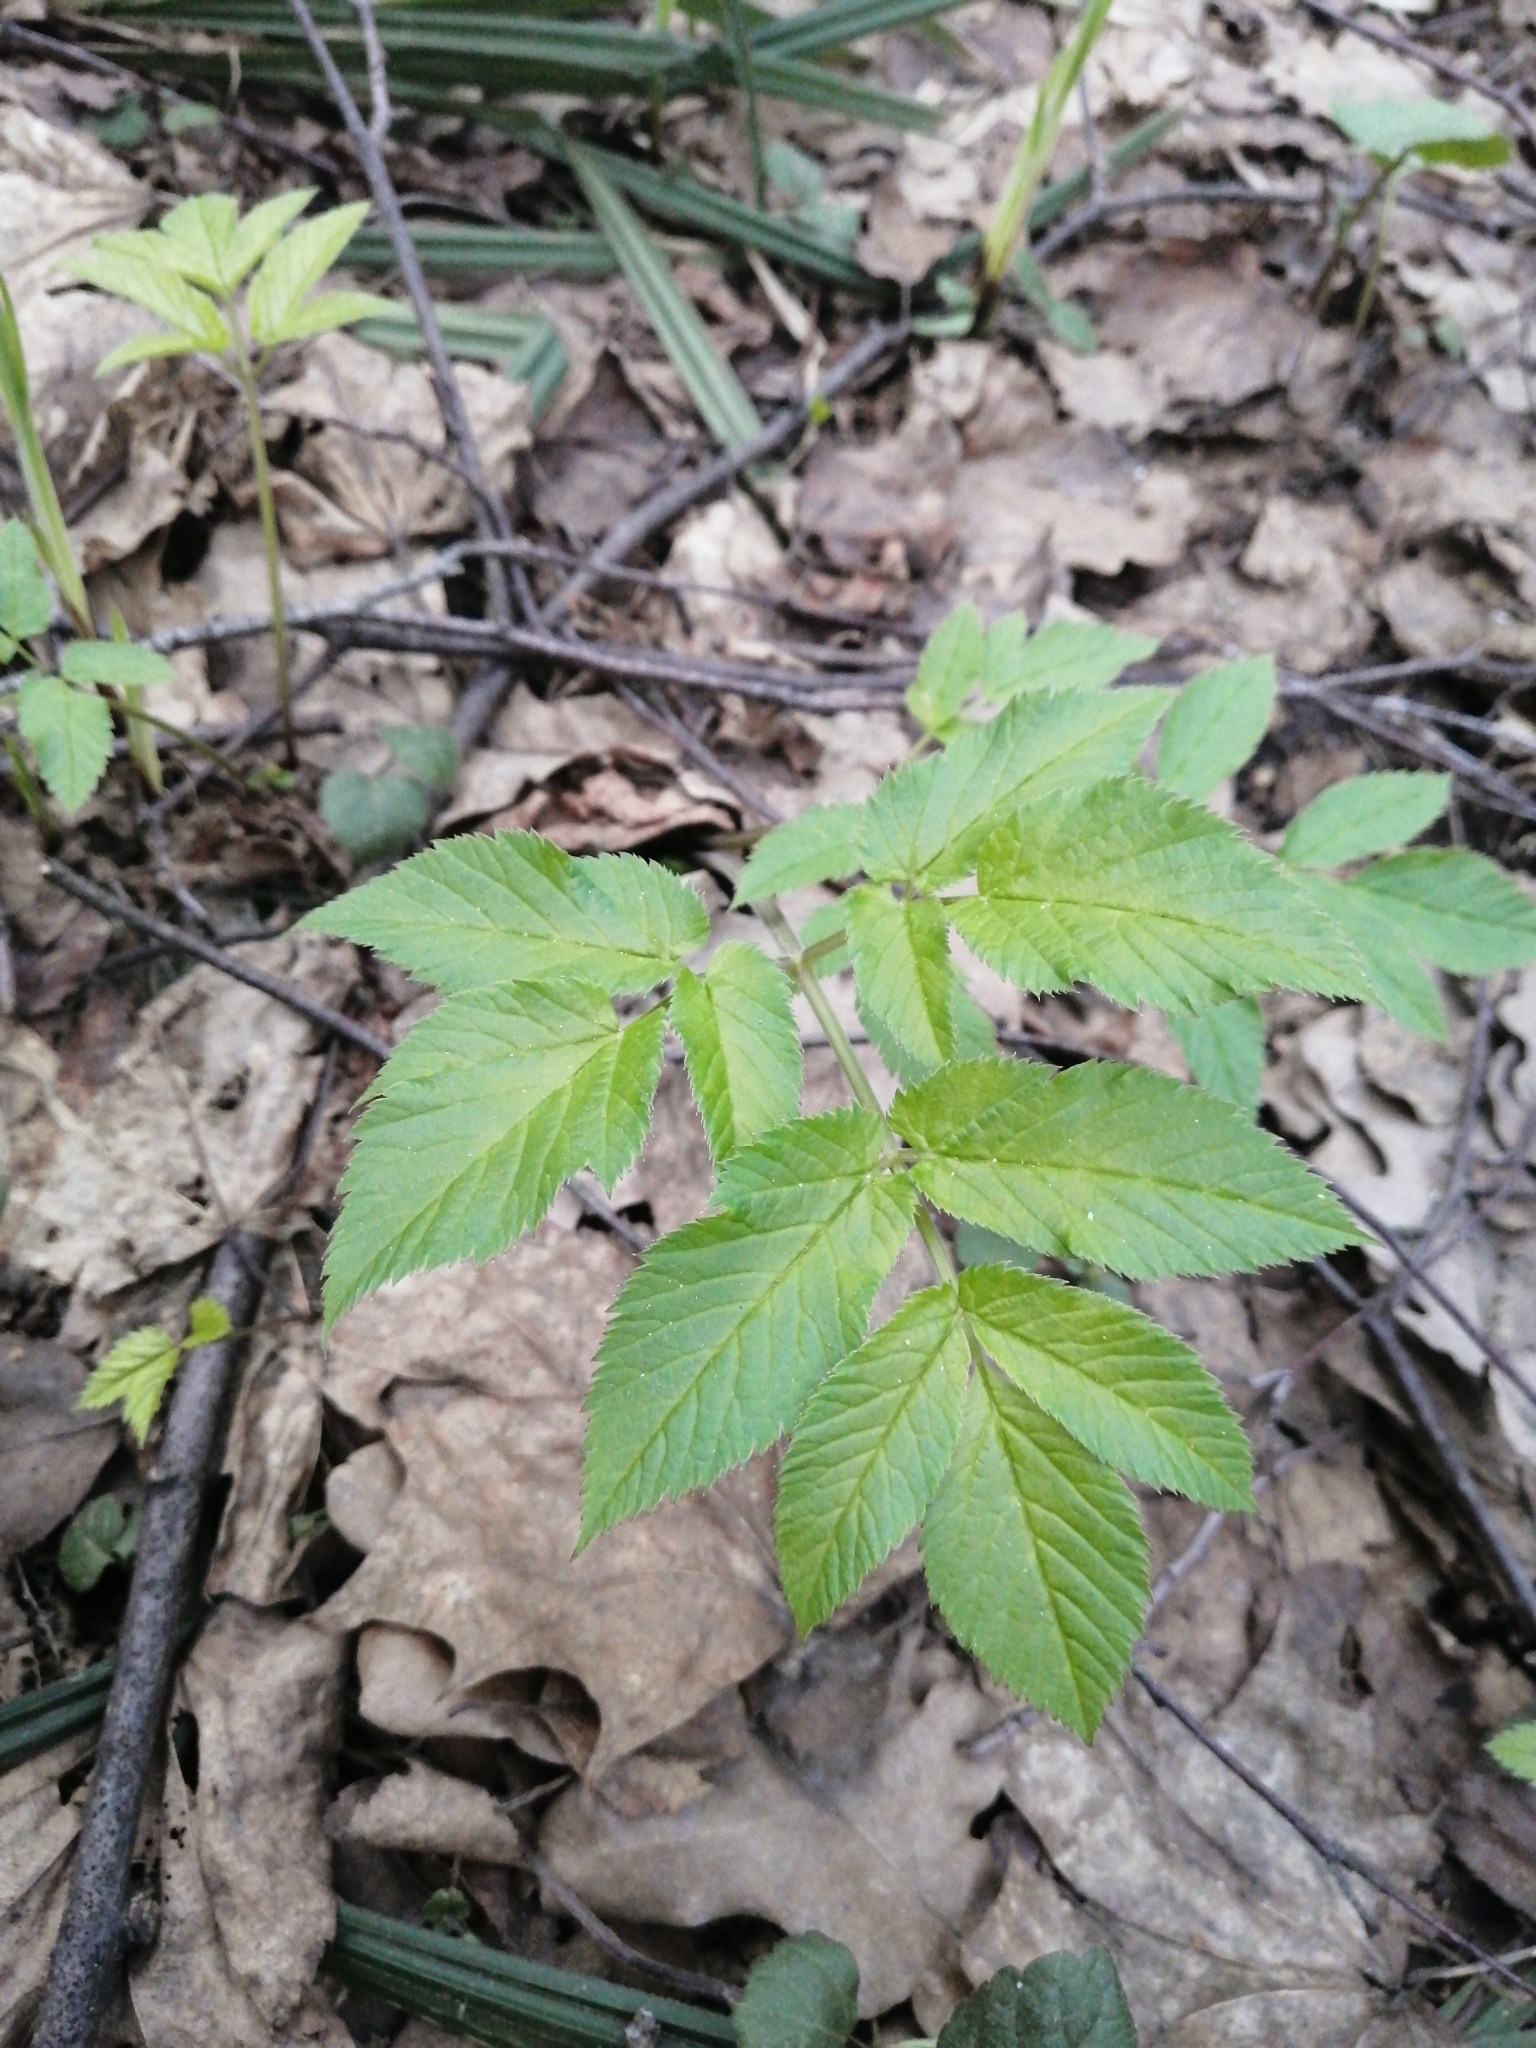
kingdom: Plantae
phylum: Tracheophyta
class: Magnoliopsida
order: Apiales
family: Apiaceae
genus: Aegopodium
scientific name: Aegopodium podagraria
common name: Ground-elder
